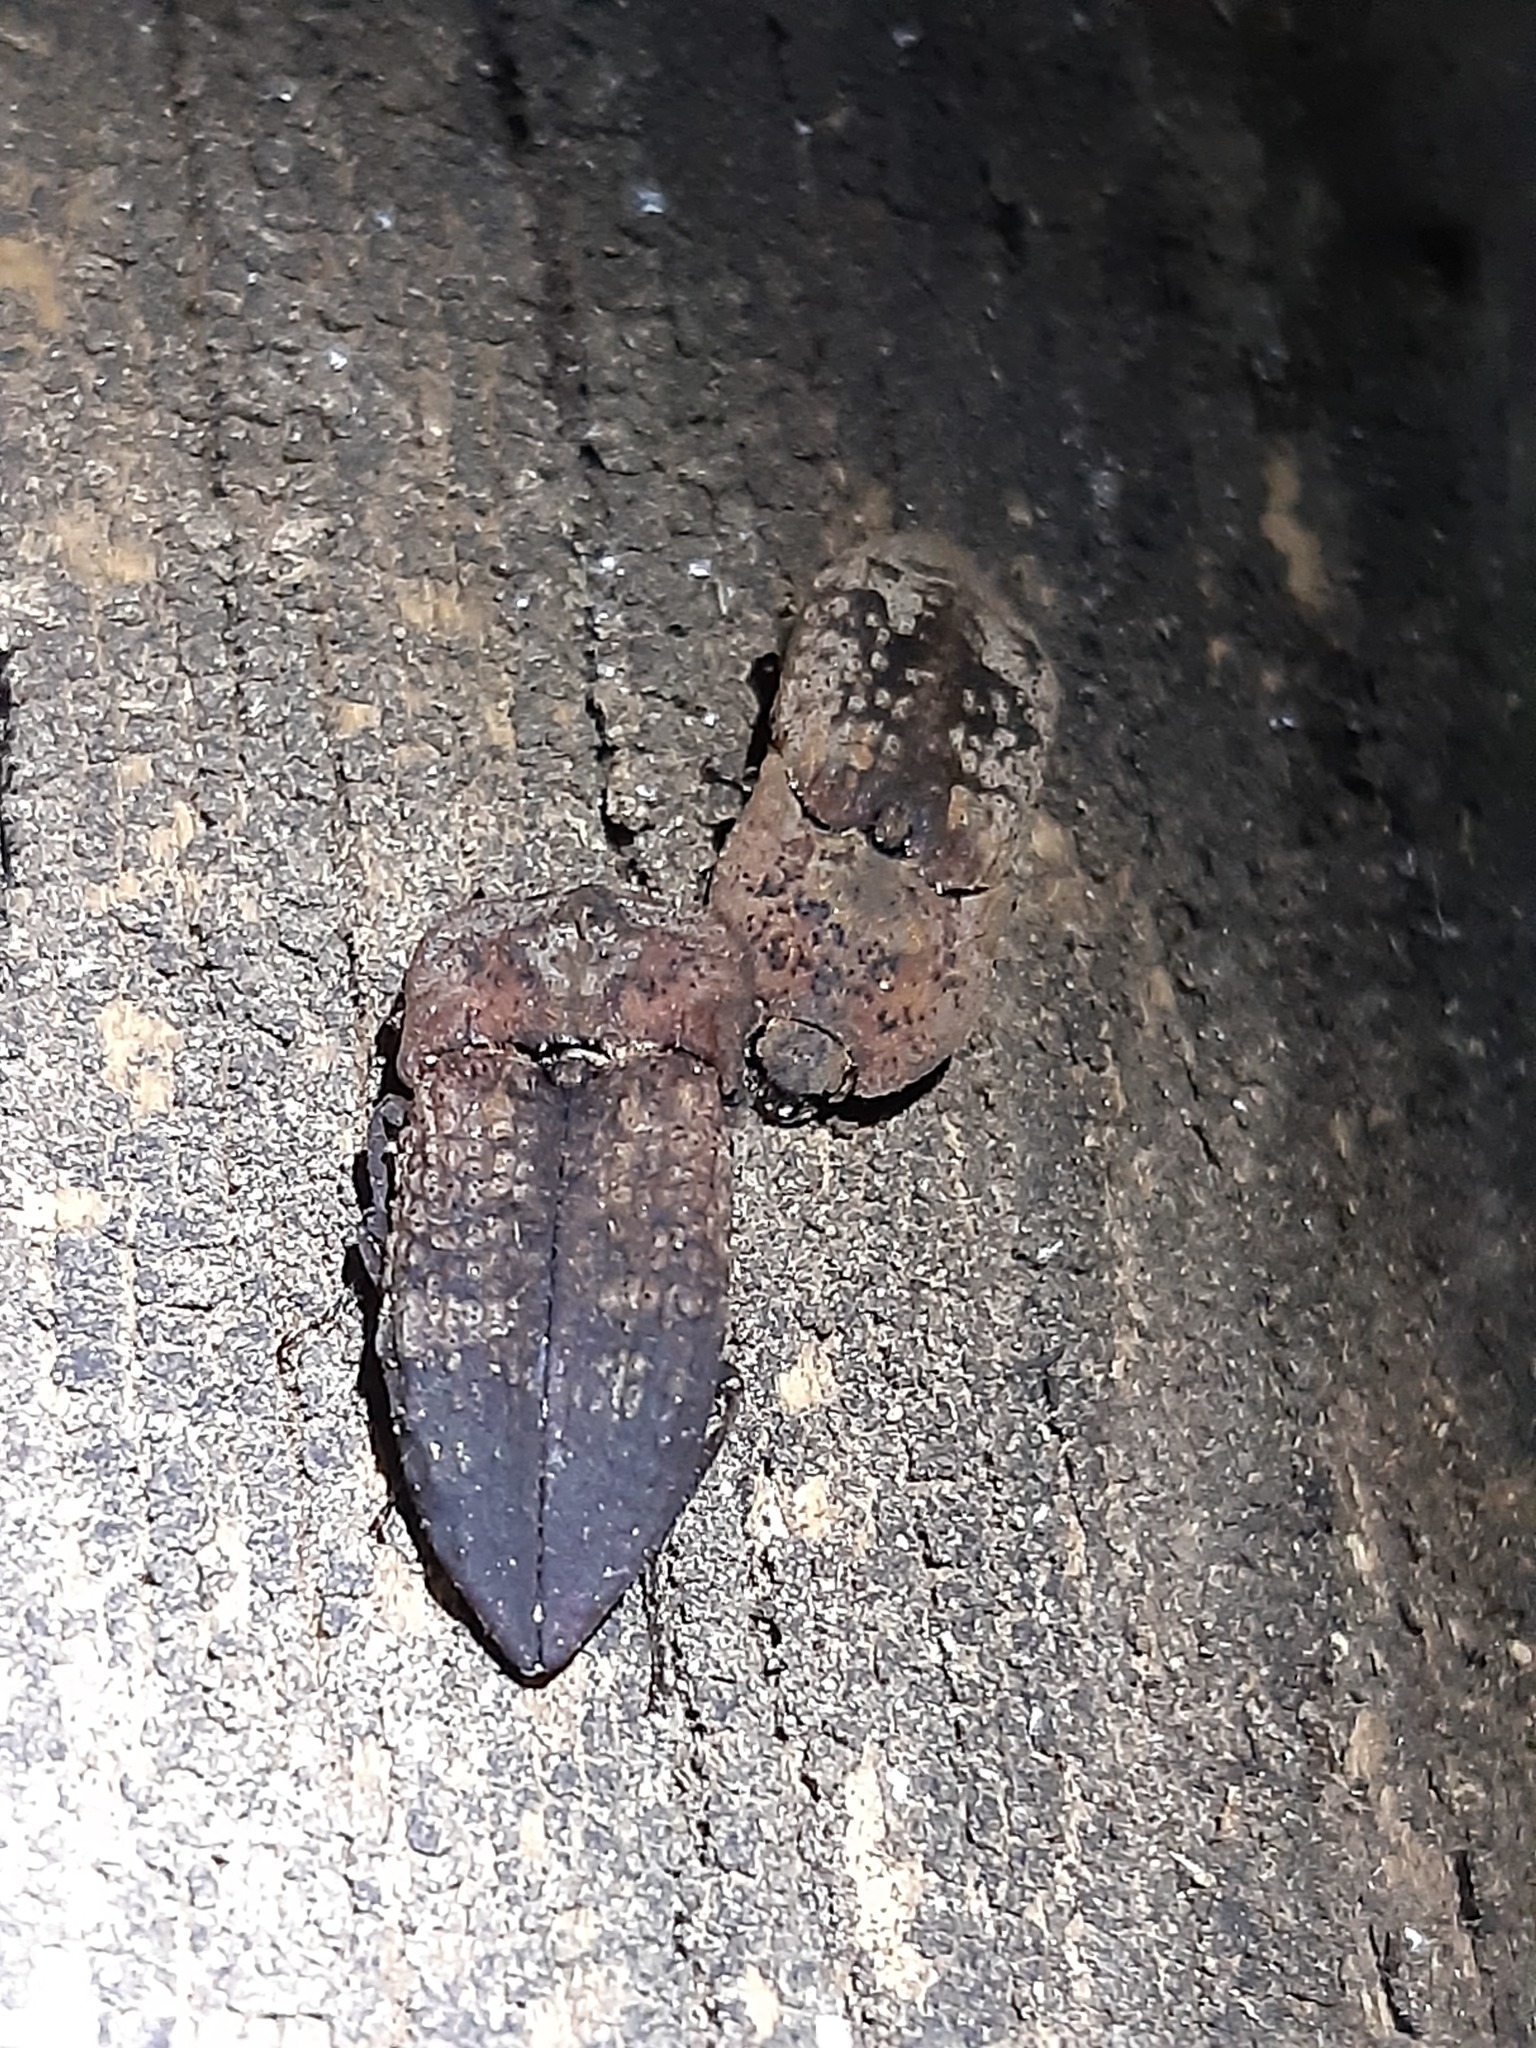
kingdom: Animalia
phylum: Arthropoda
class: Insecta
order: Coleoptera
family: Elateridae
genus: Amychus
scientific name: Amychus
